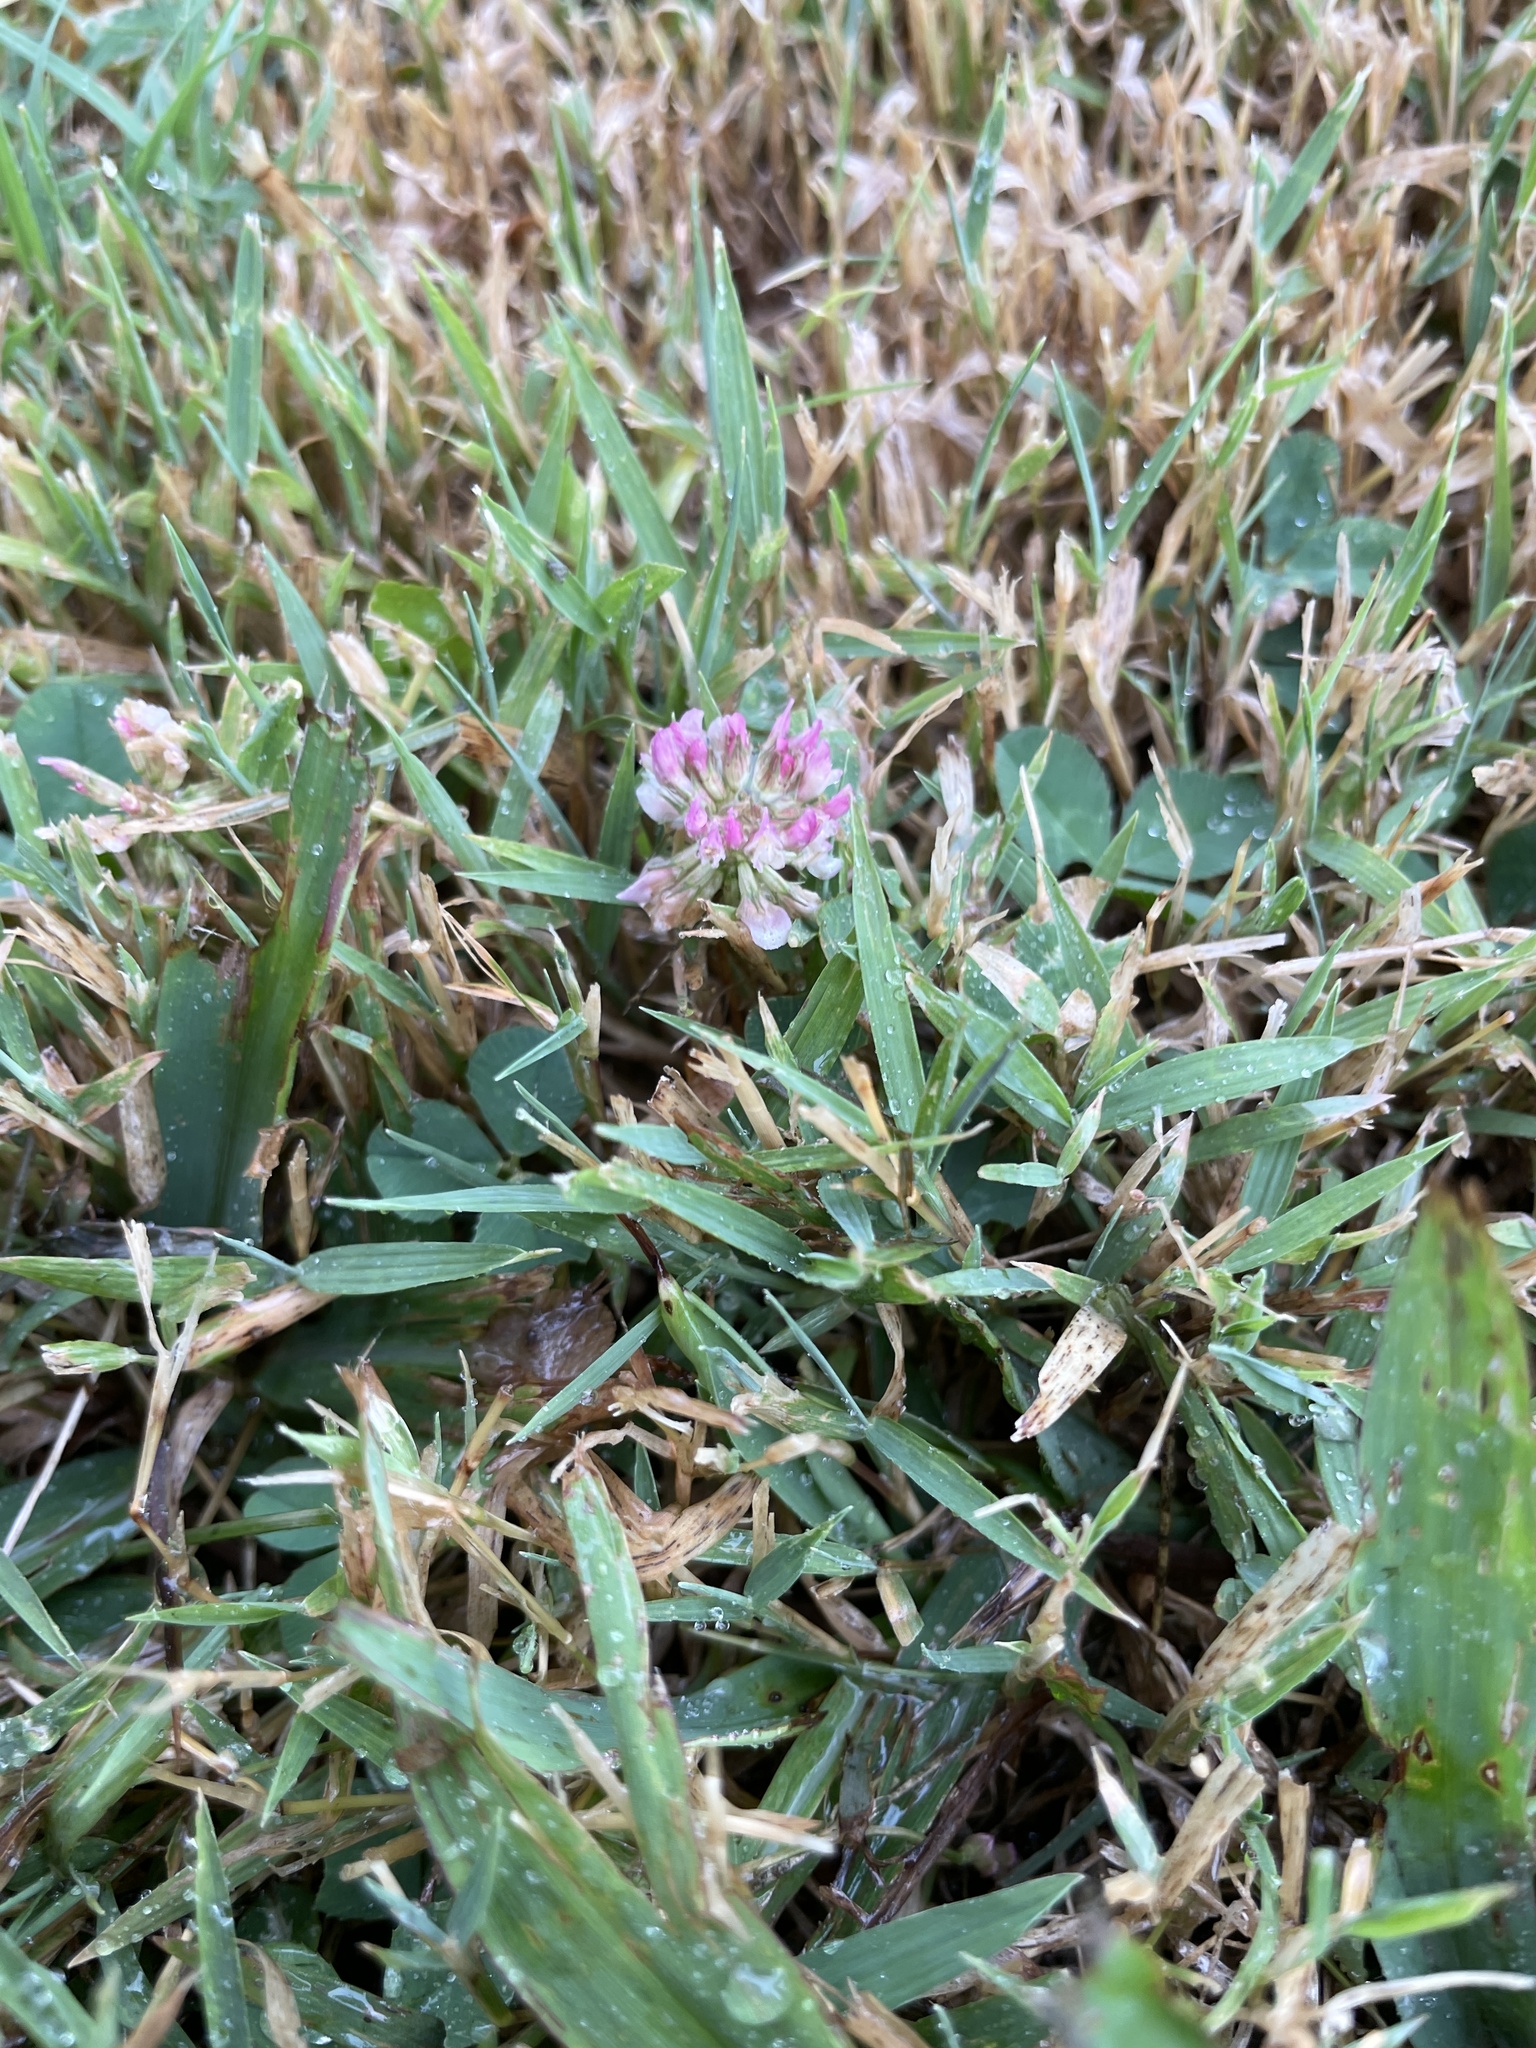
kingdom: Plantae
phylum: Tracheophyta
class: Magnoliopsida
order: Fabales
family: Fabaceae
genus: Trifolium
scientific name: Trifolium repens
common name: White clover
